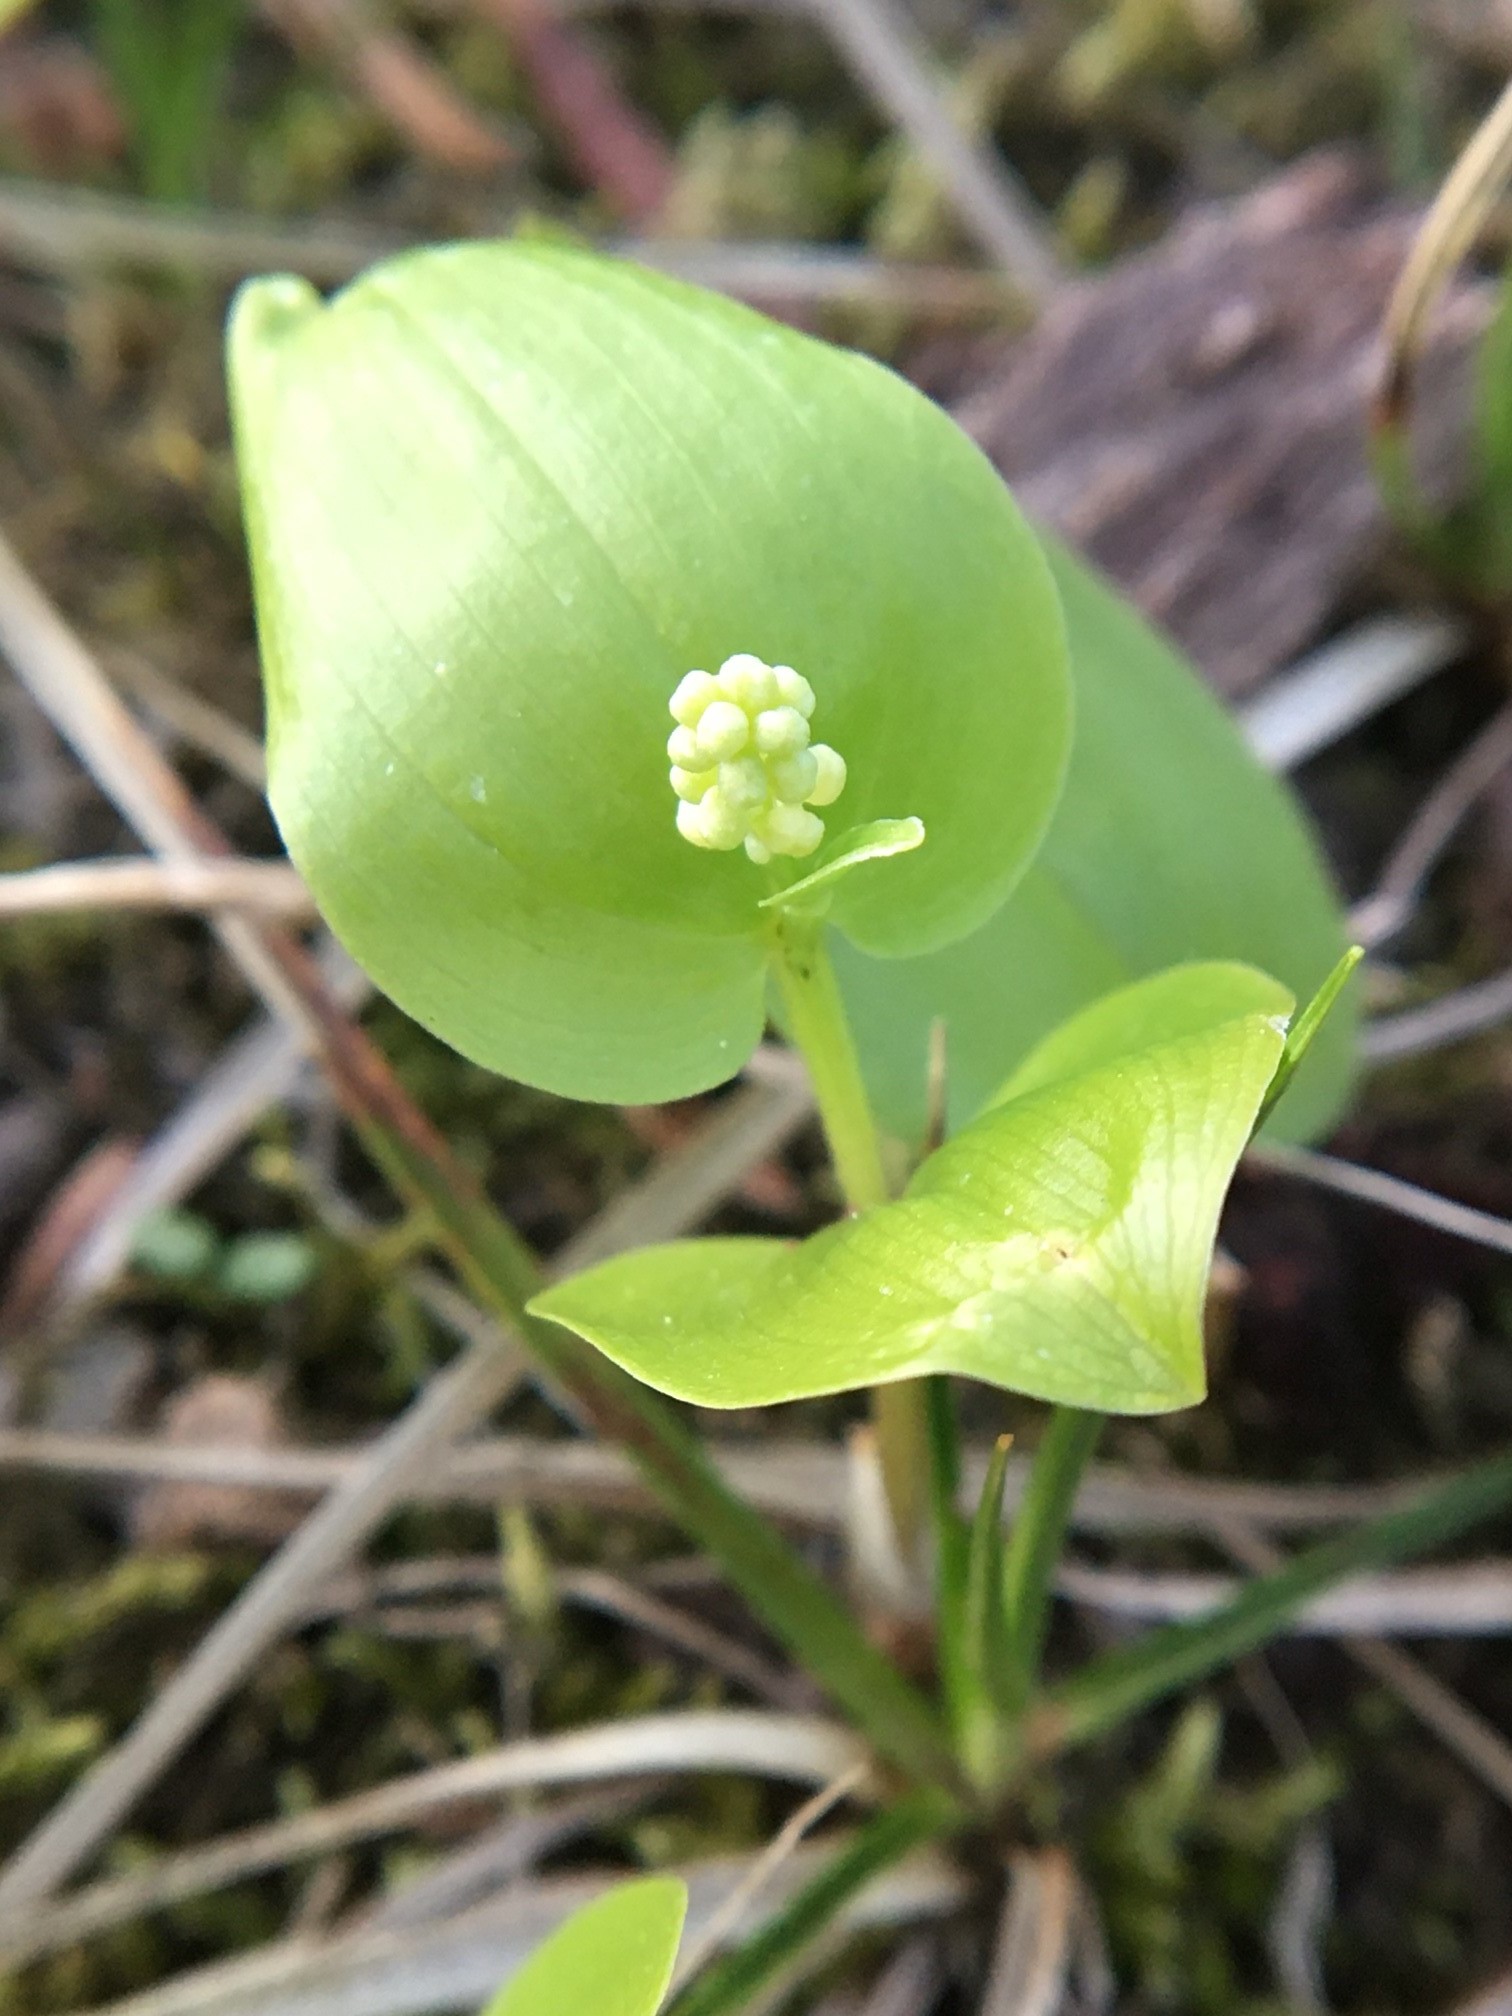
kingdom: Plantae
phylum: Tracheophyta
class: Liliopsida
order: Asparagales
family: Asparagaceae
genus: Maianthemum
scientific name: Maianthemum canadense
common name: False lily-of-the-valley
